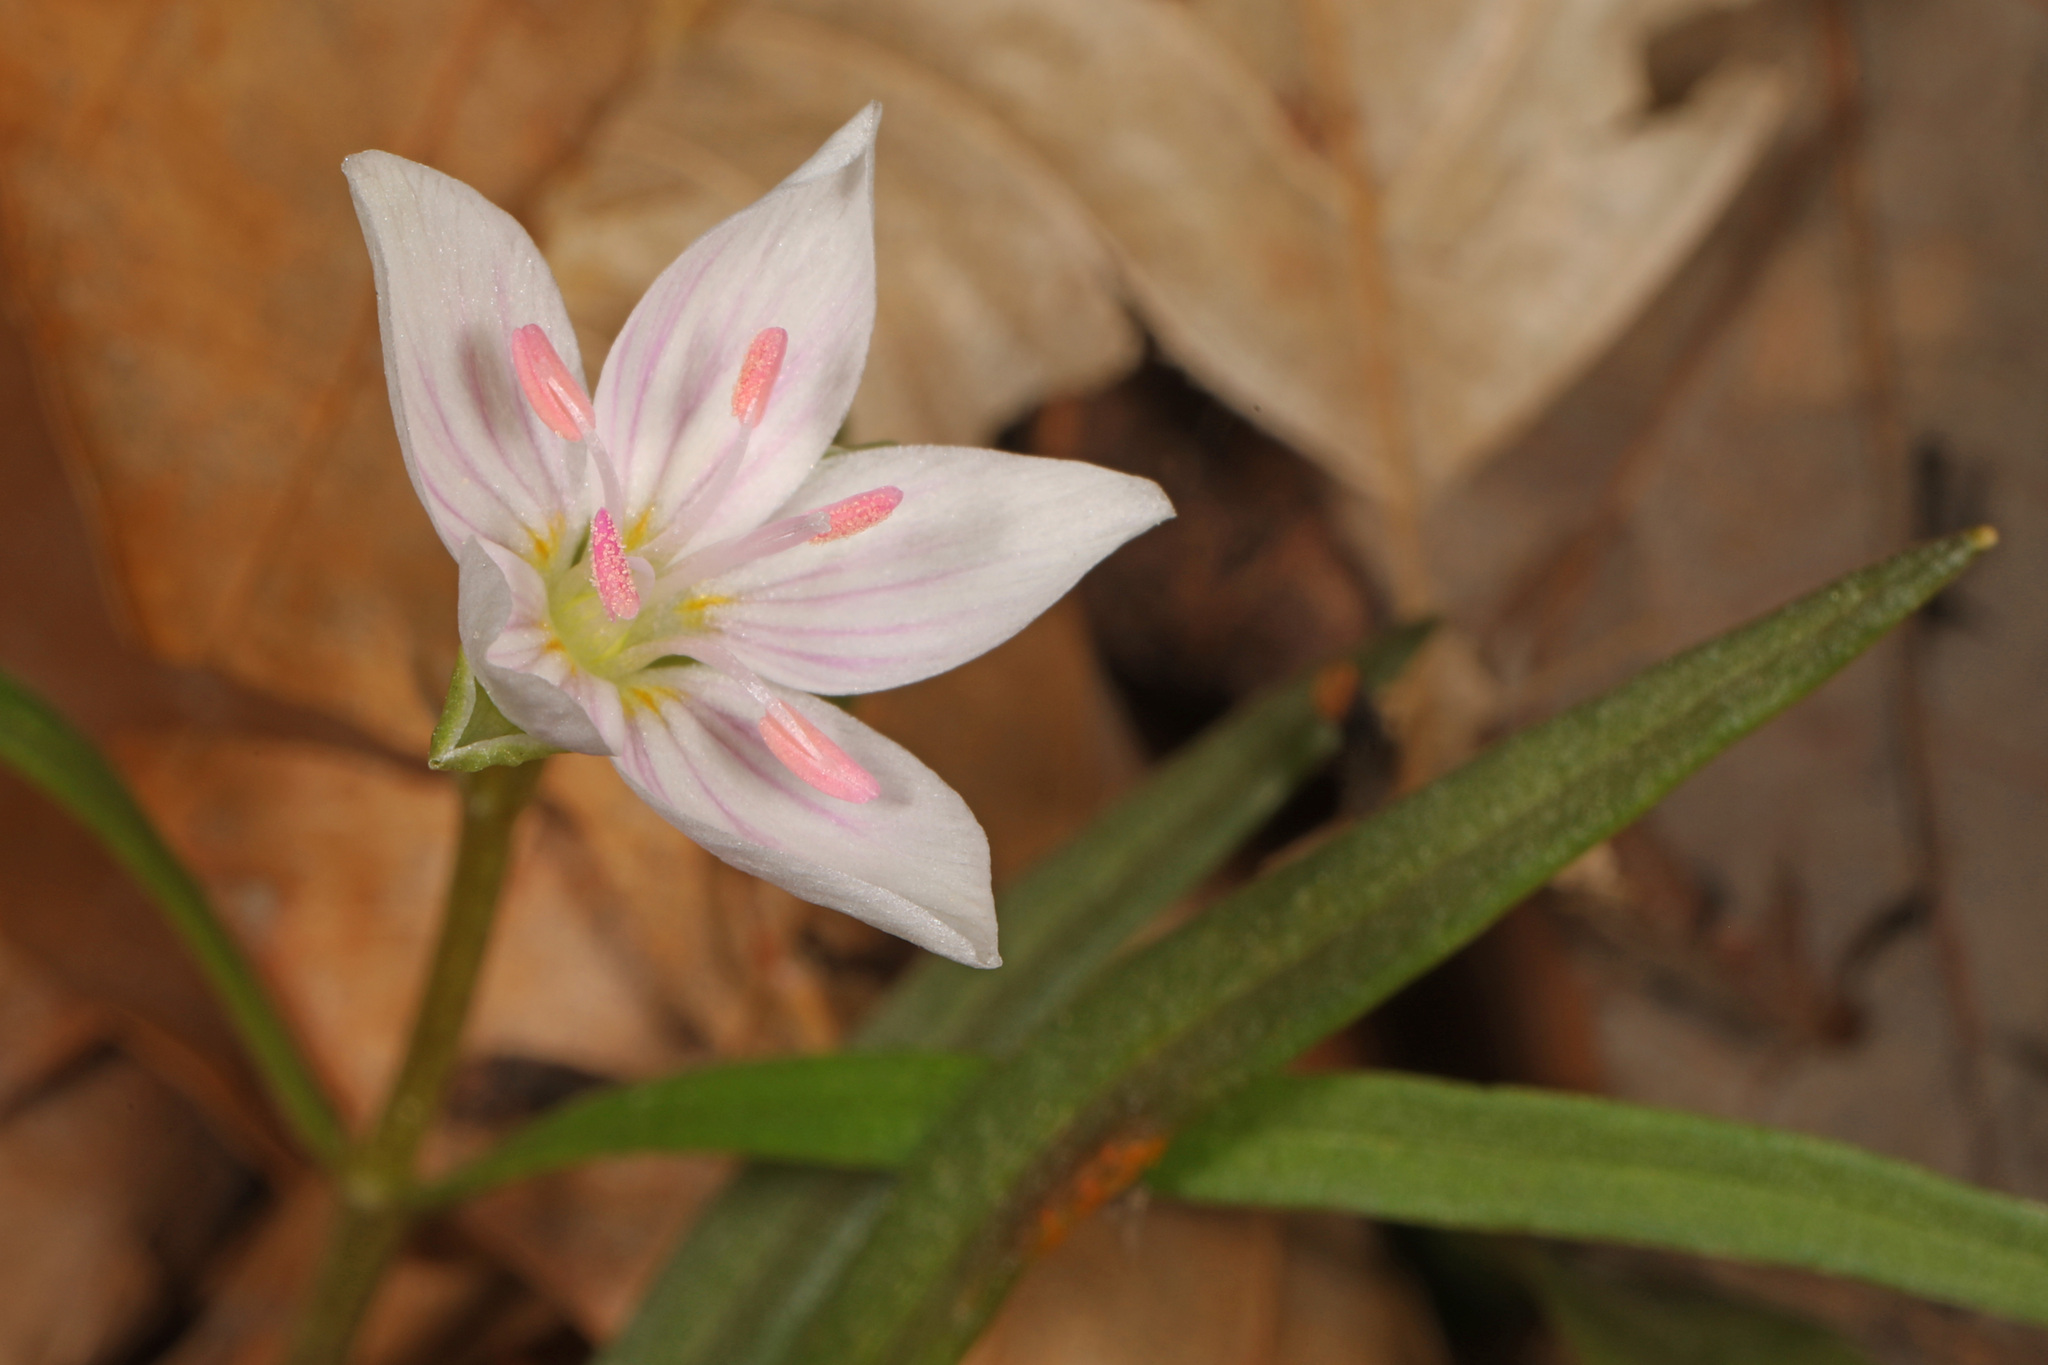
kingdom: Plantae
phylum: Tracheophyta
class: Magnoliopsida
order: Caryophyllales
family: Montiaceae
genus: Claytonia
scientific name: Claytonia virginica
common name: Virginia springbeauty
